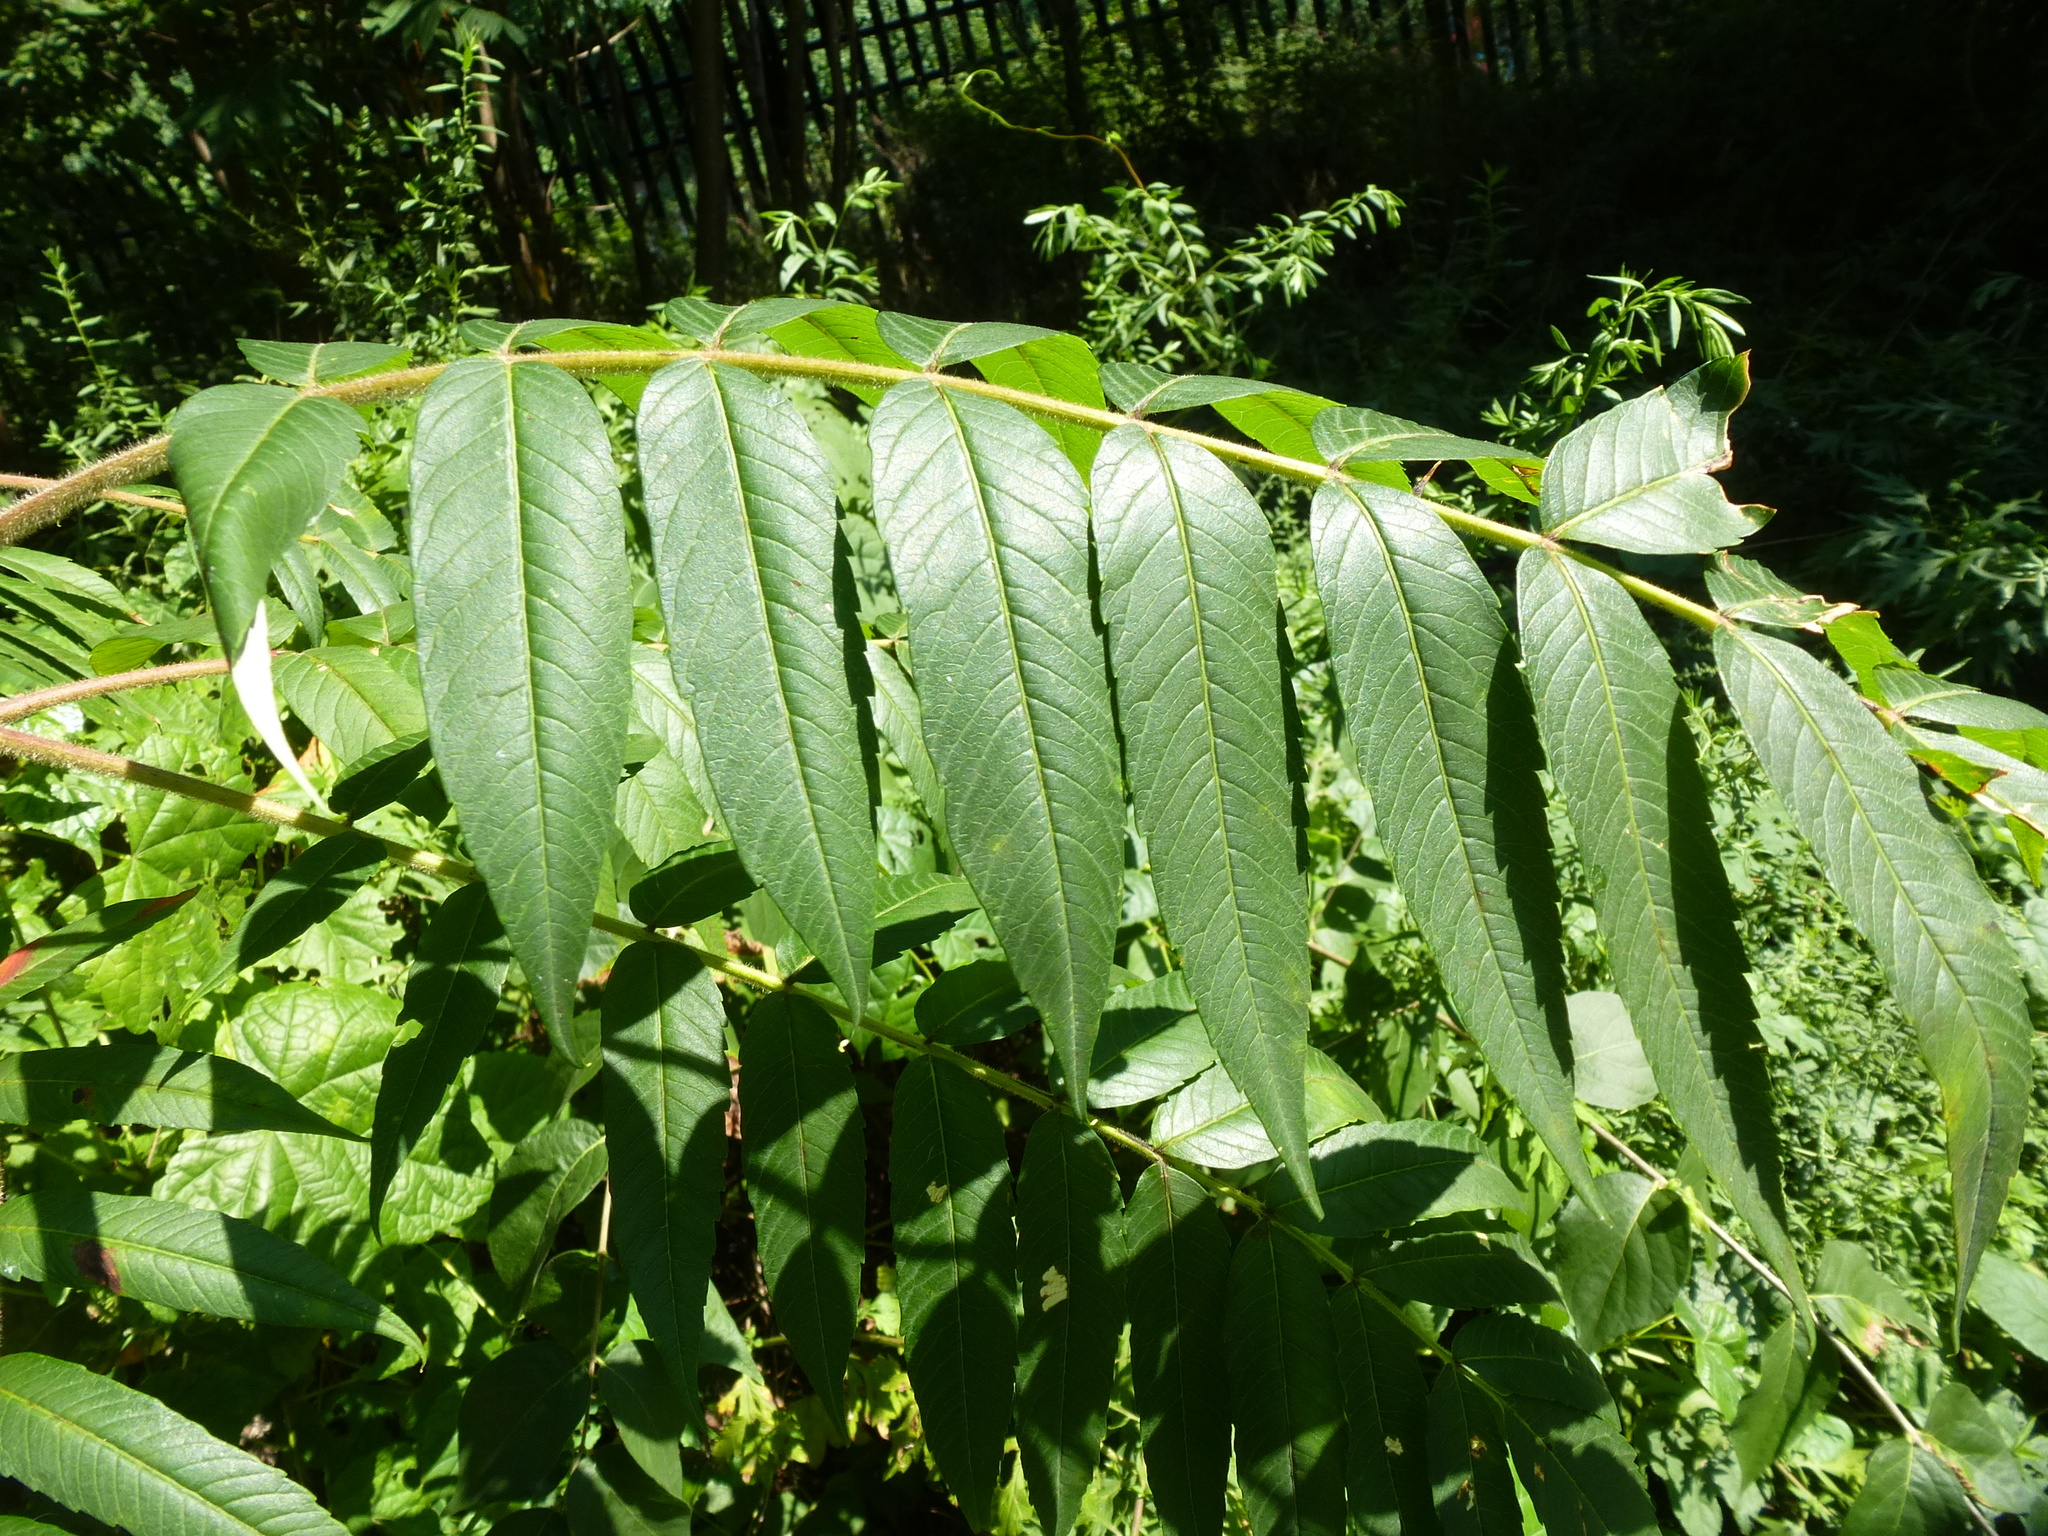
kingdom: Plantae
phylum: Tracheophyta
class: Magnoliopsida
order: Sapindales
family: Anacardiaceae
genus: Rhus
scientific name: Rhus typhina
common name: Staghorn sumac
